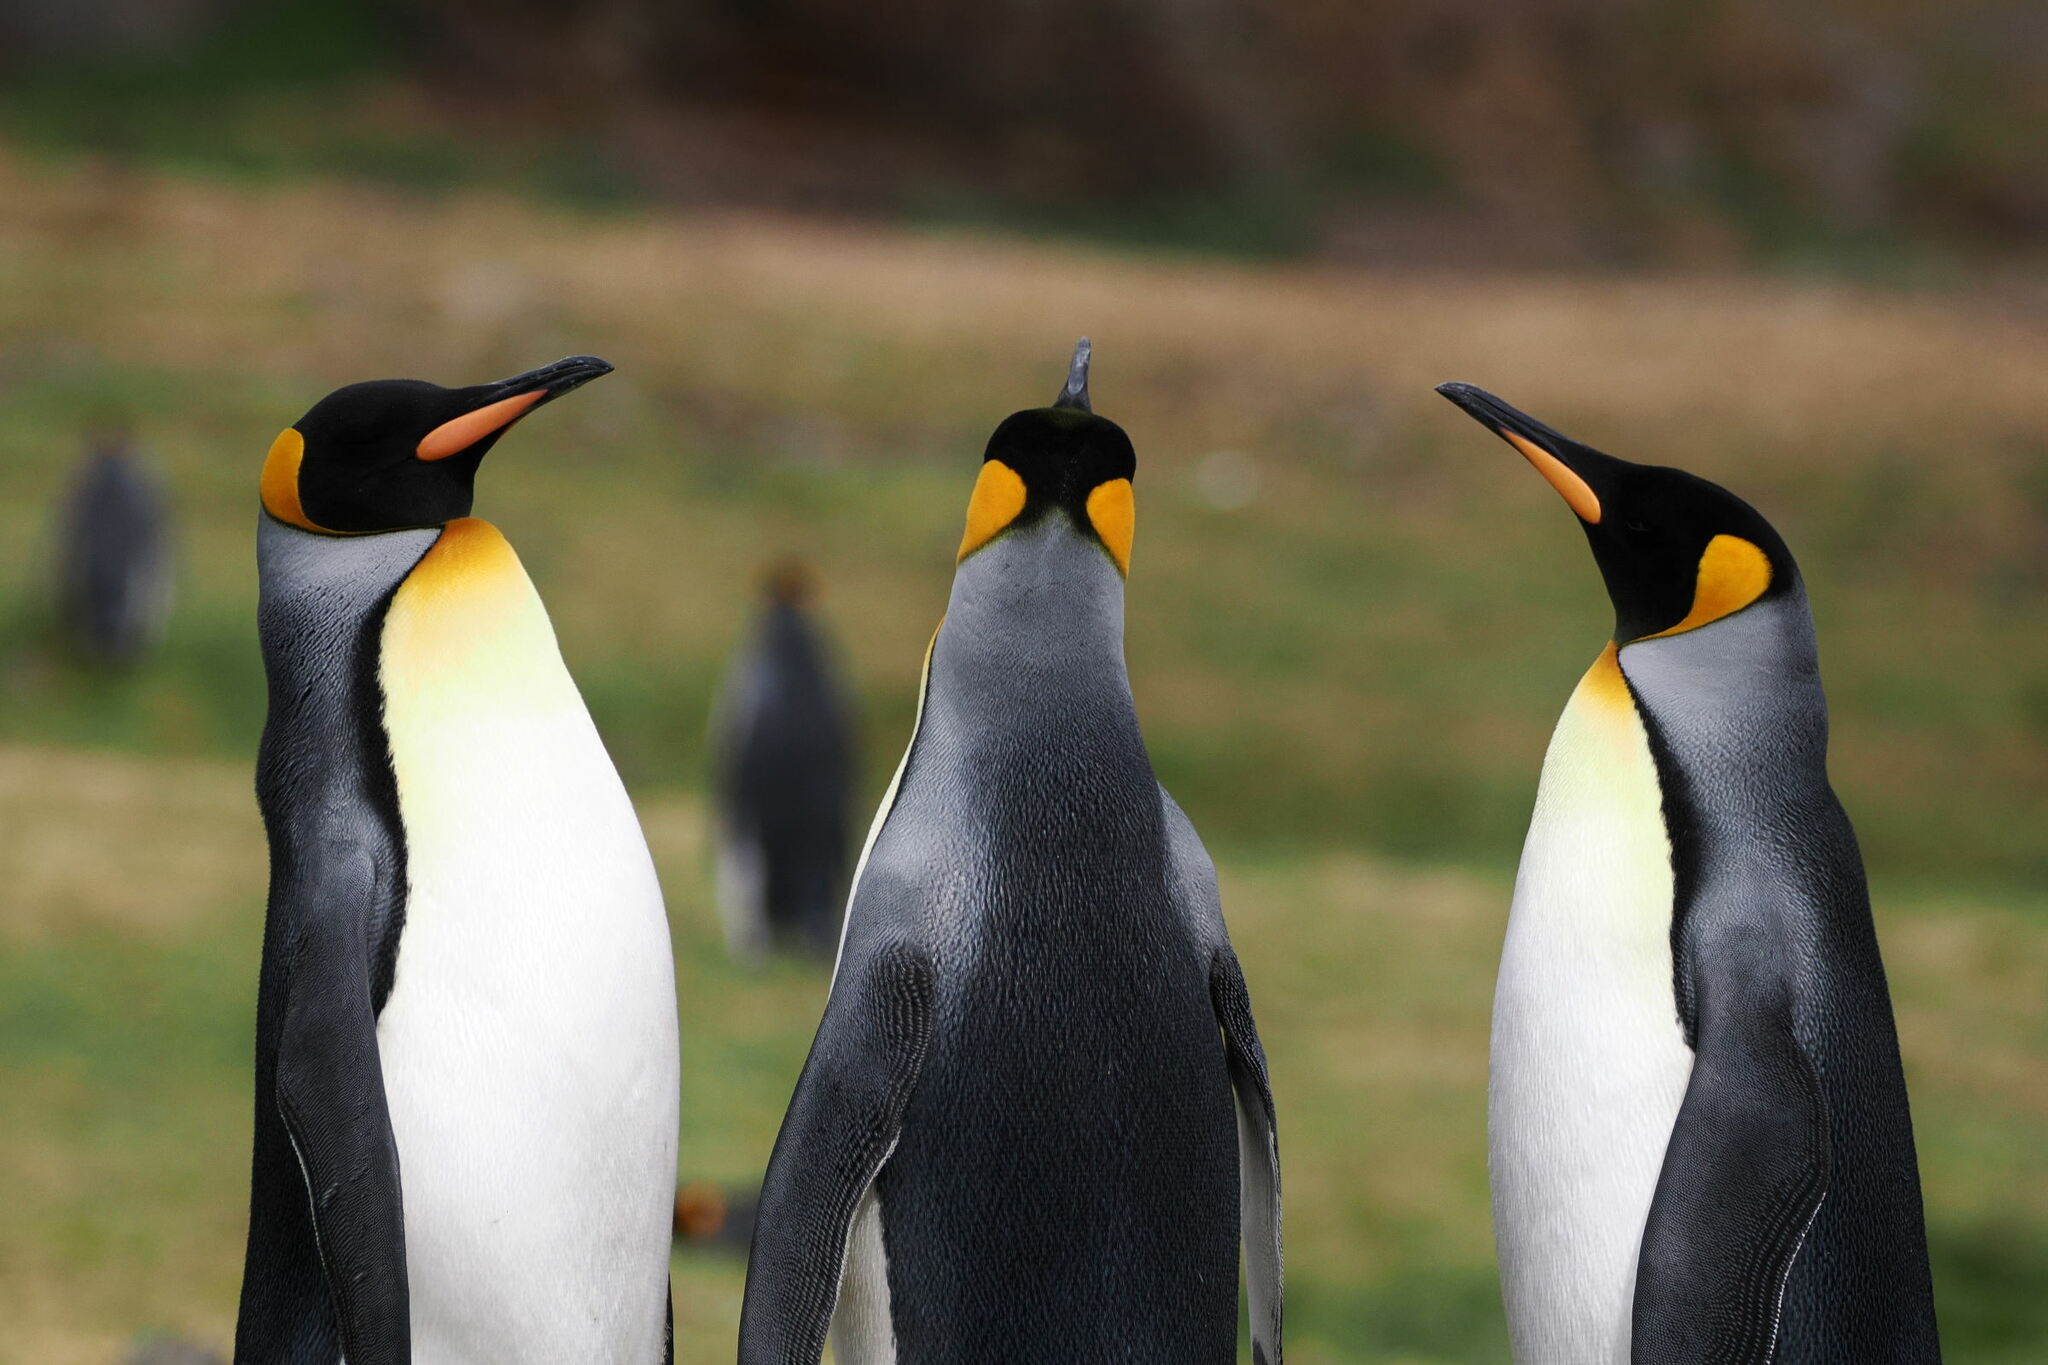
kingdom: Animalia
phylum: Chordata
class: Aves
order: Sphenisciformes
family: Spheniscidae
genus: Aptenodytes
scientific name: Aptenodytes patagonicus
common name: King penguin
